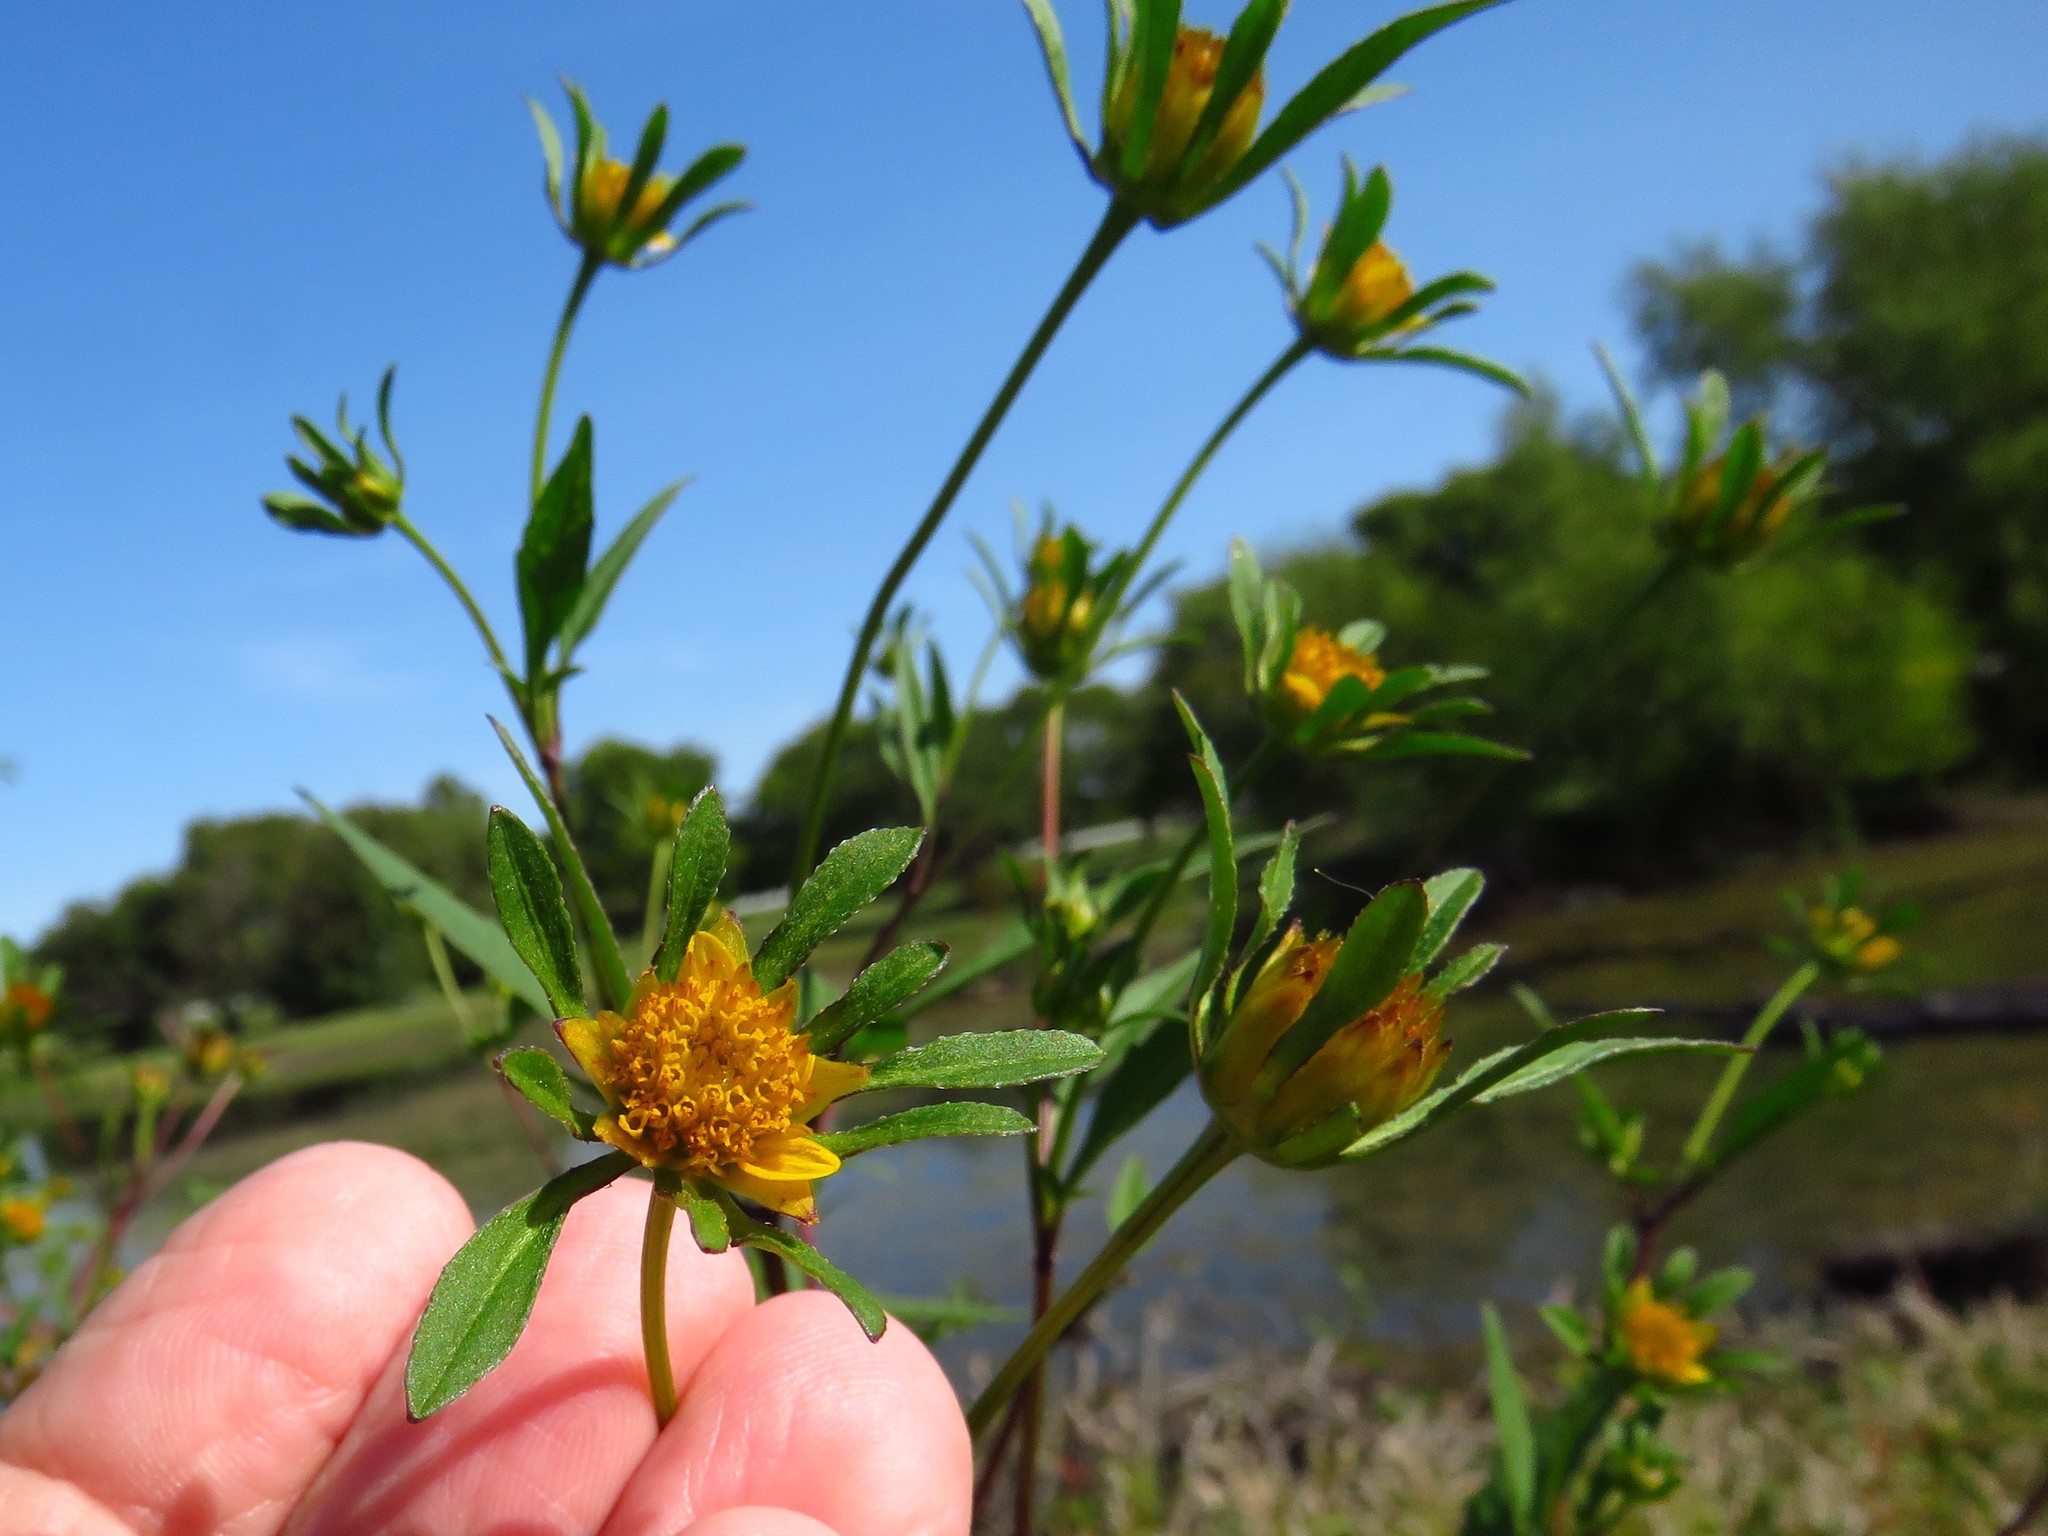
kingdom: Plantae
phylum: Tracheophyta
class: Magnoliopsida
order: Asterales
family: Asteraceae
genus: Bidens
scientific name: Bidens frondosa
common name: Beggarticks
